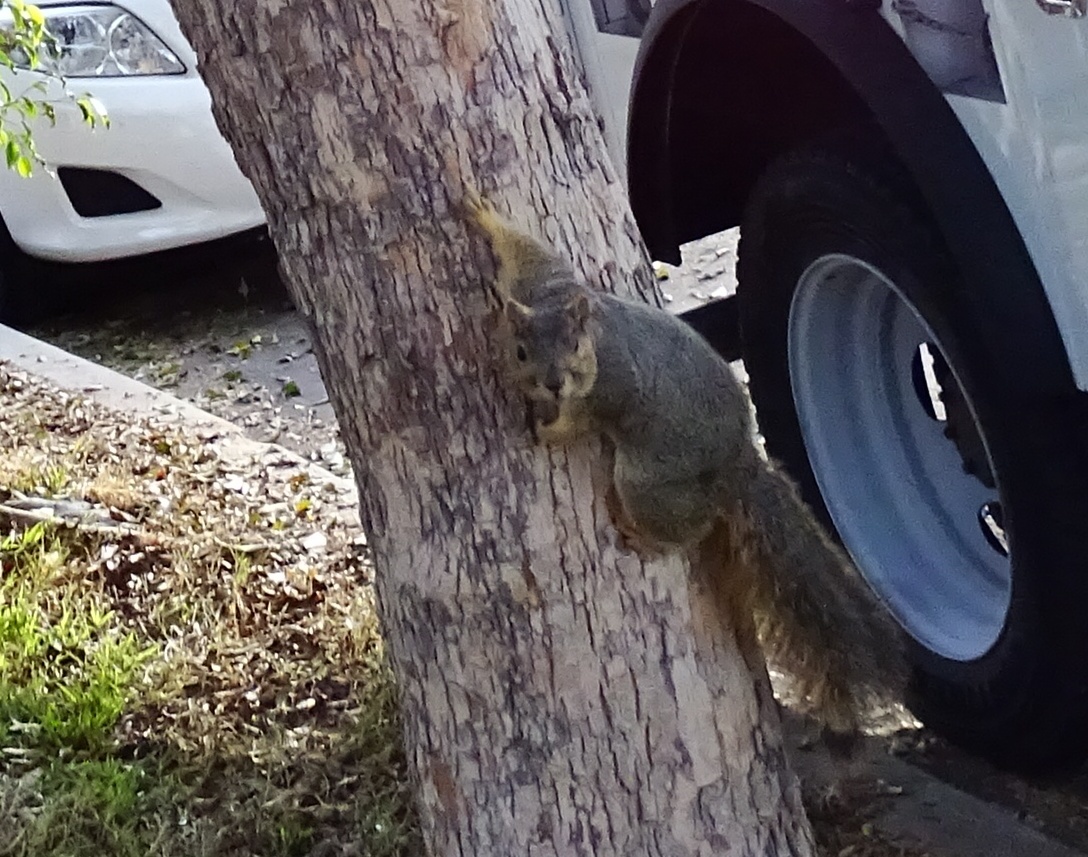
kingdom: Animalia
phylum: Chordata
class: Mammalia
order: Rodentia
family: Sciuridae
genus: Sciurus
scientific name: Sciurus niger
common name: Fox squirrel
